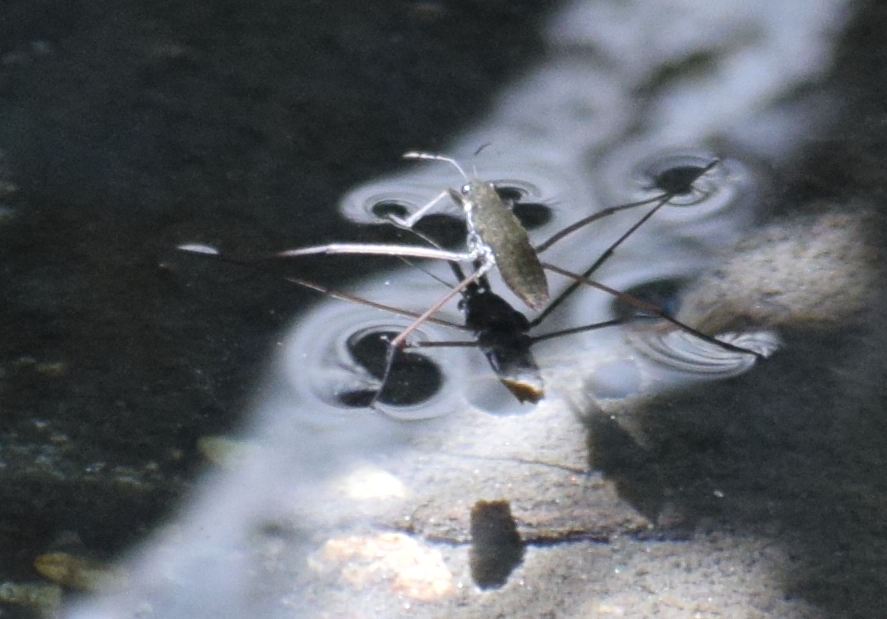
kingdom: Animalia
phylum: Arthropoda
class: Insecta
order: Hemiptera
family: Gerridae
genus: Aquarius
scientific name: Aquarius remigis
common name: Common water strider
